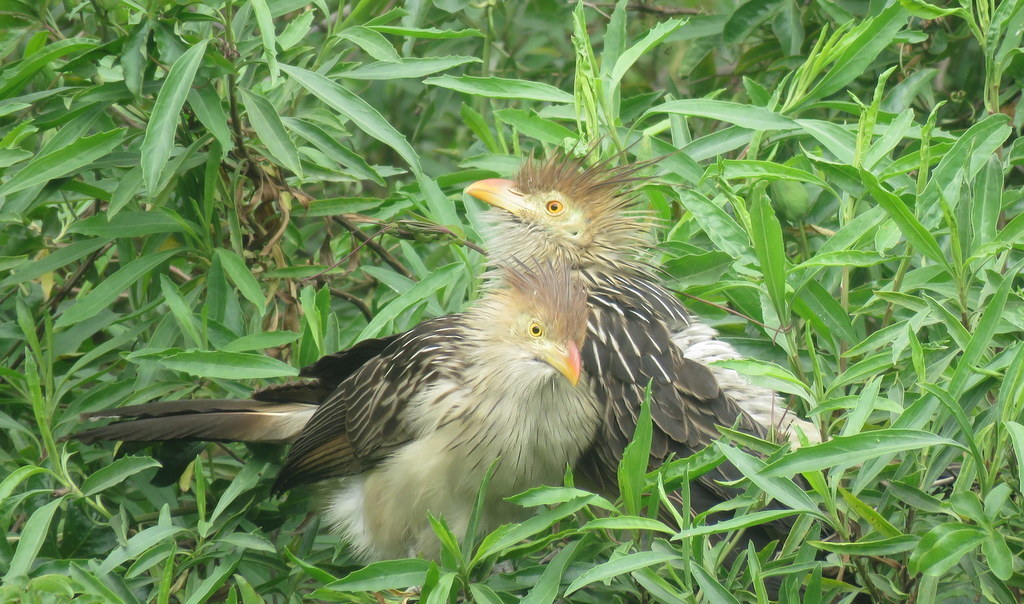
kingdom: Animalia
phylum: Chordata
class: Aves
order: Cuculiformes
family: Cuculidae
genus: Guira
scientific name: Guira guira
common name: Guira cuckoo
